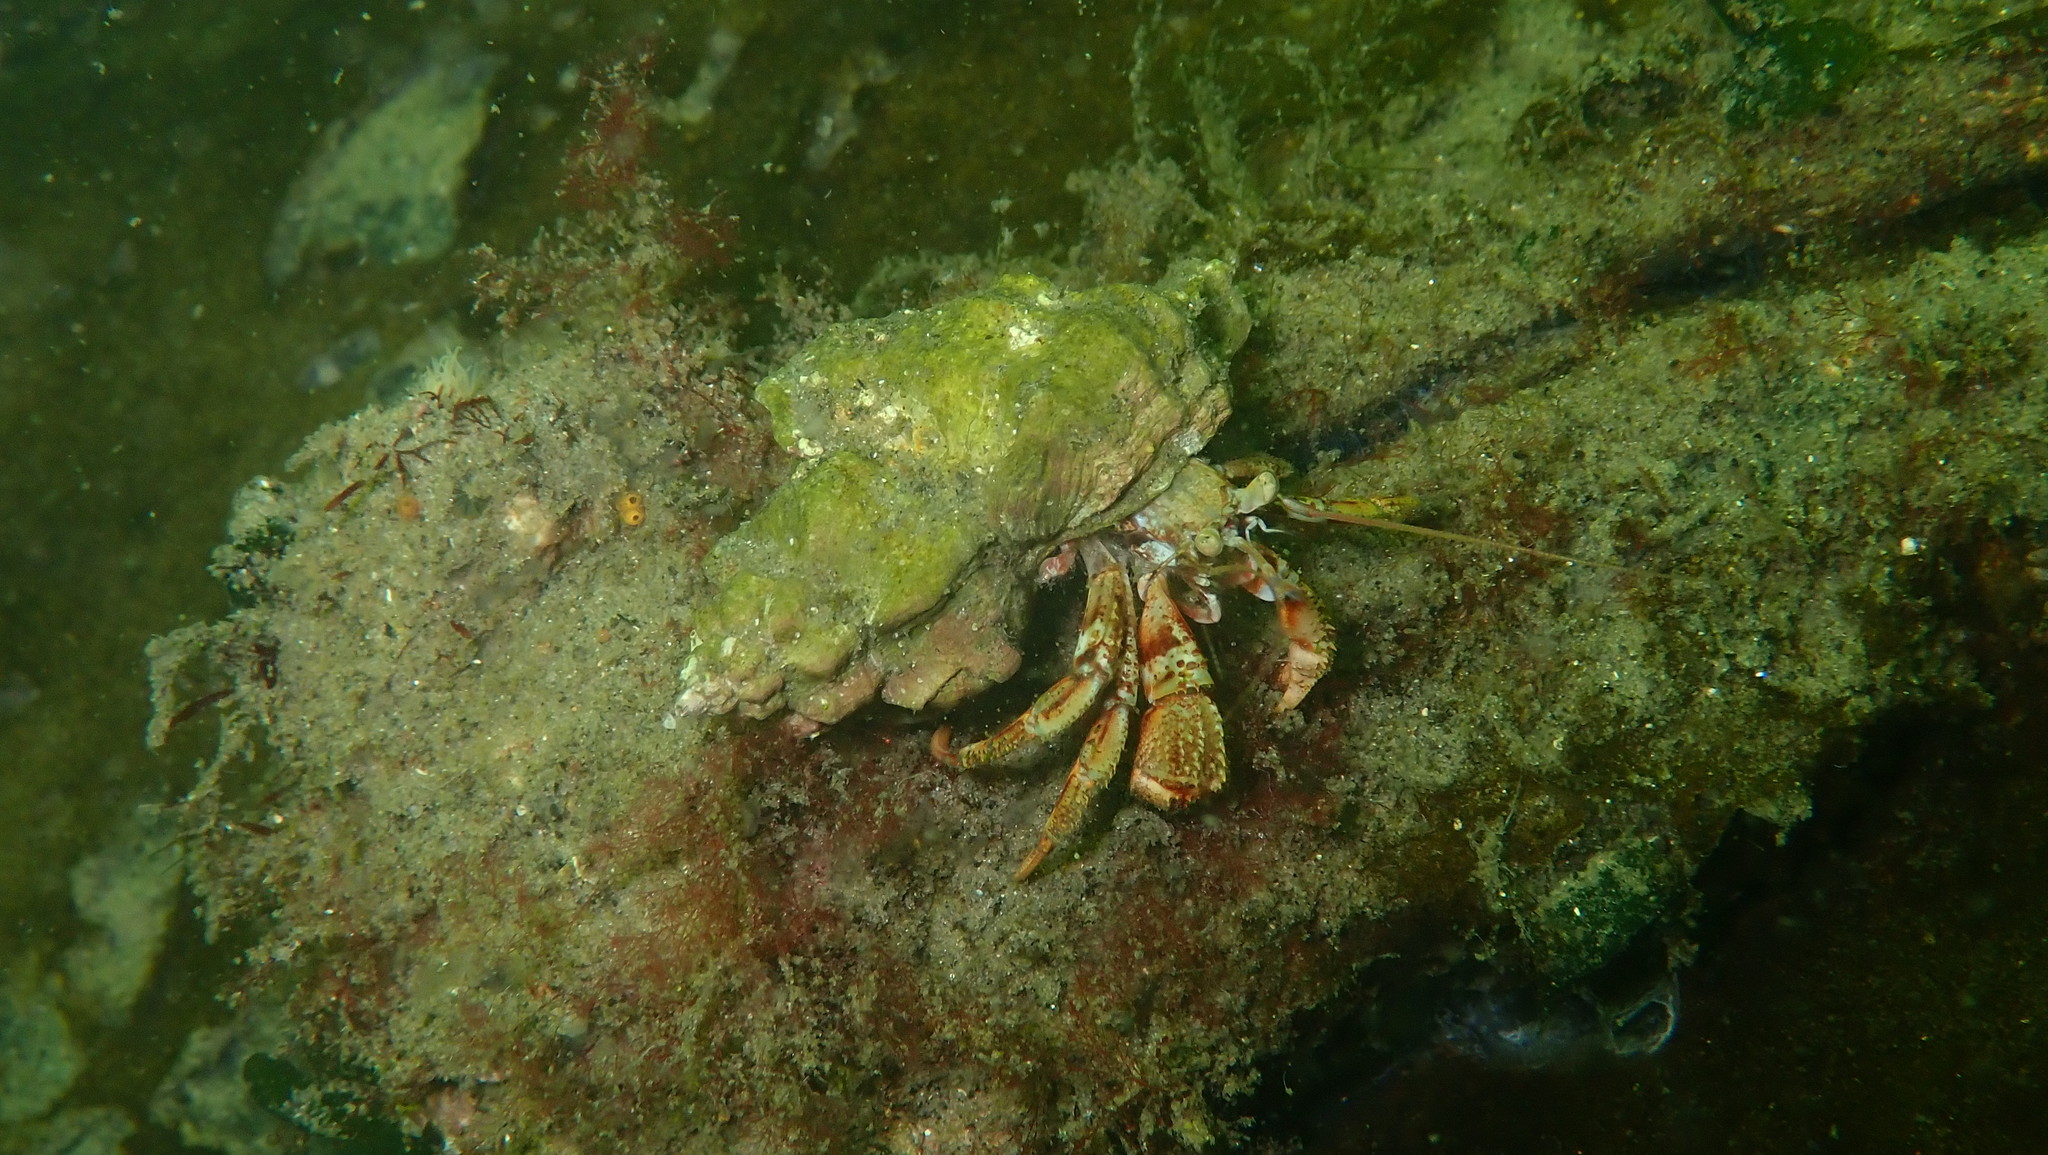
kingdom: Animalia
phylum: Arthropoda
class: Malacostraca
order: Decapoda
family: Paguridae
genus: Pagurus
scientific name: Pagurus bernhardus
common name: Hermit crab
